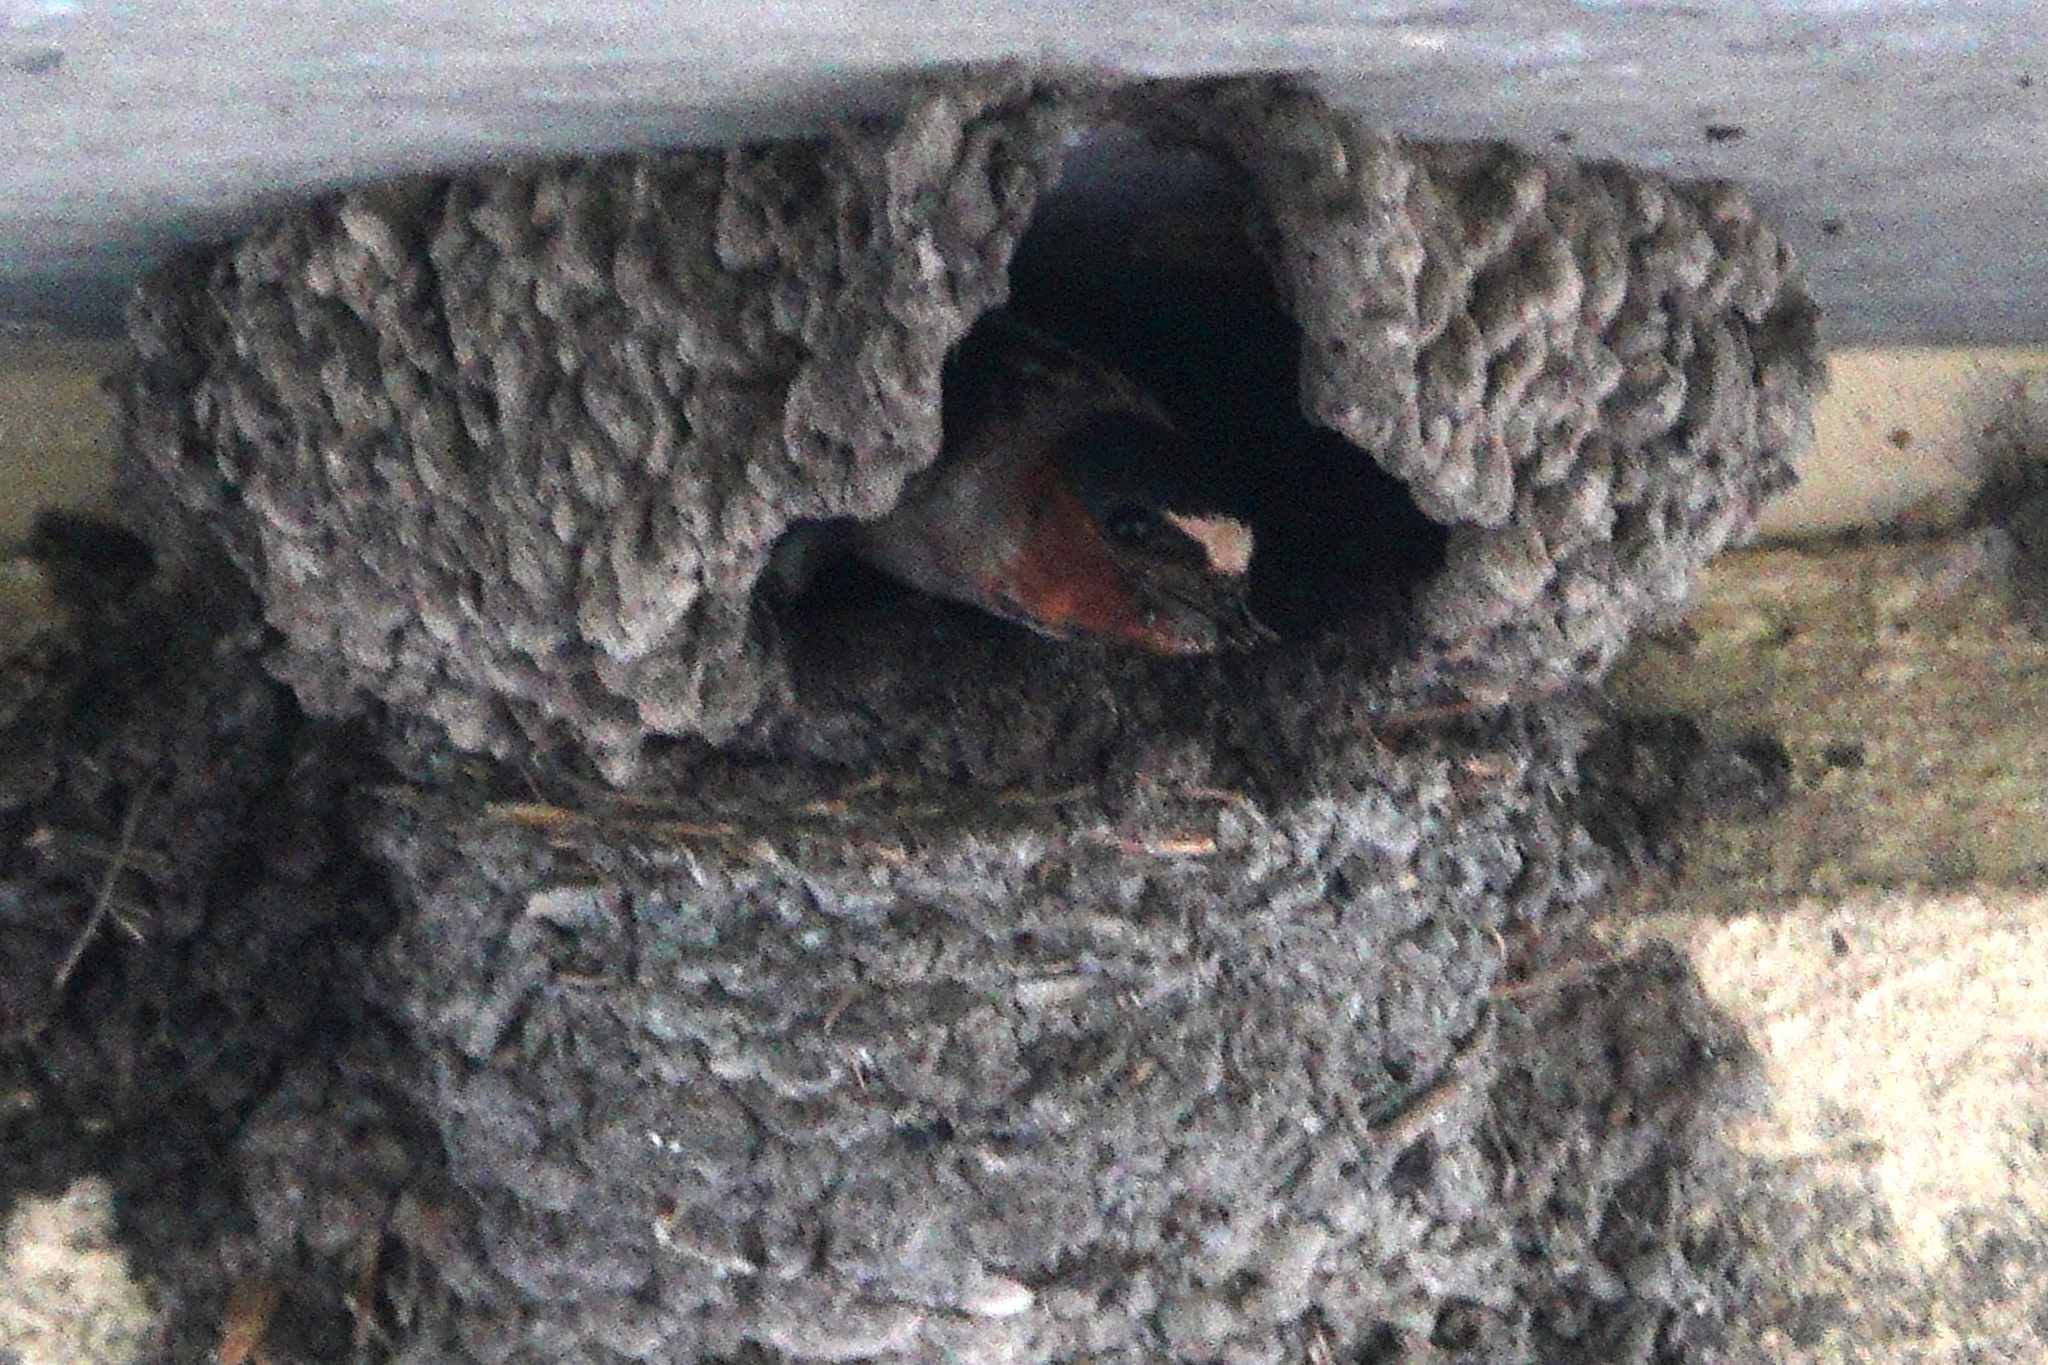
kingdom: Animalia
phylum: Chordata
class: Aves
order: Passeriformes
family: Hirundinidae
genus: Petrochelidon
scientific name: Petrochelidon pyrrhonota
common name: American cliff swallow
